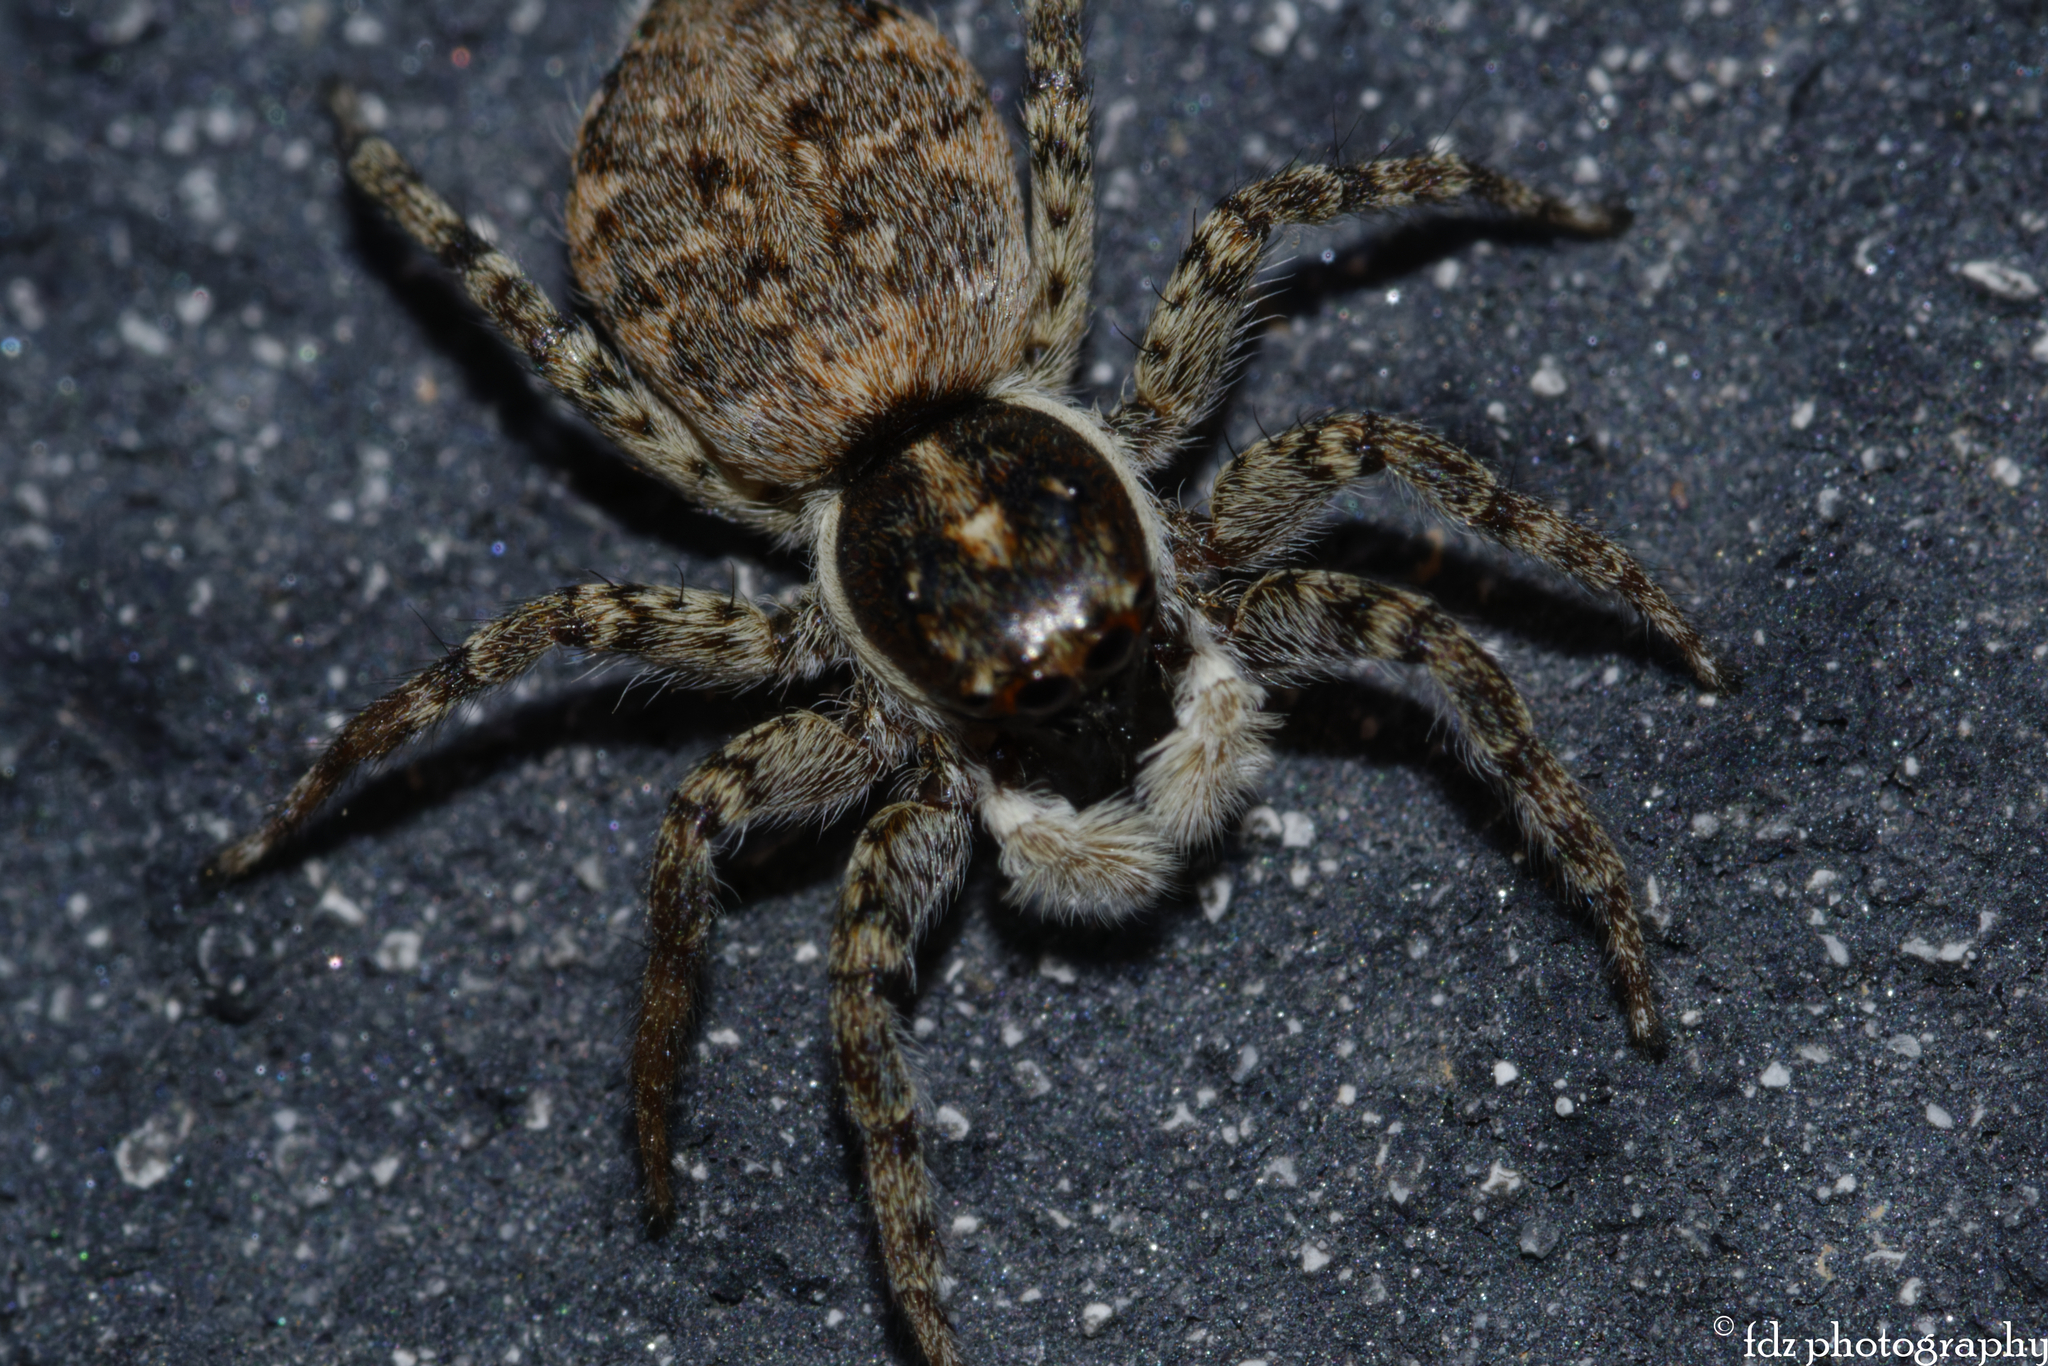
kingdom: Animalia
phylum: Arthropoda
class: Arachnida
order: Araneae
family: Salticidae
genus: Menemerus
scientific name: Menemerus semilimbatus
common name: Jumping spider
